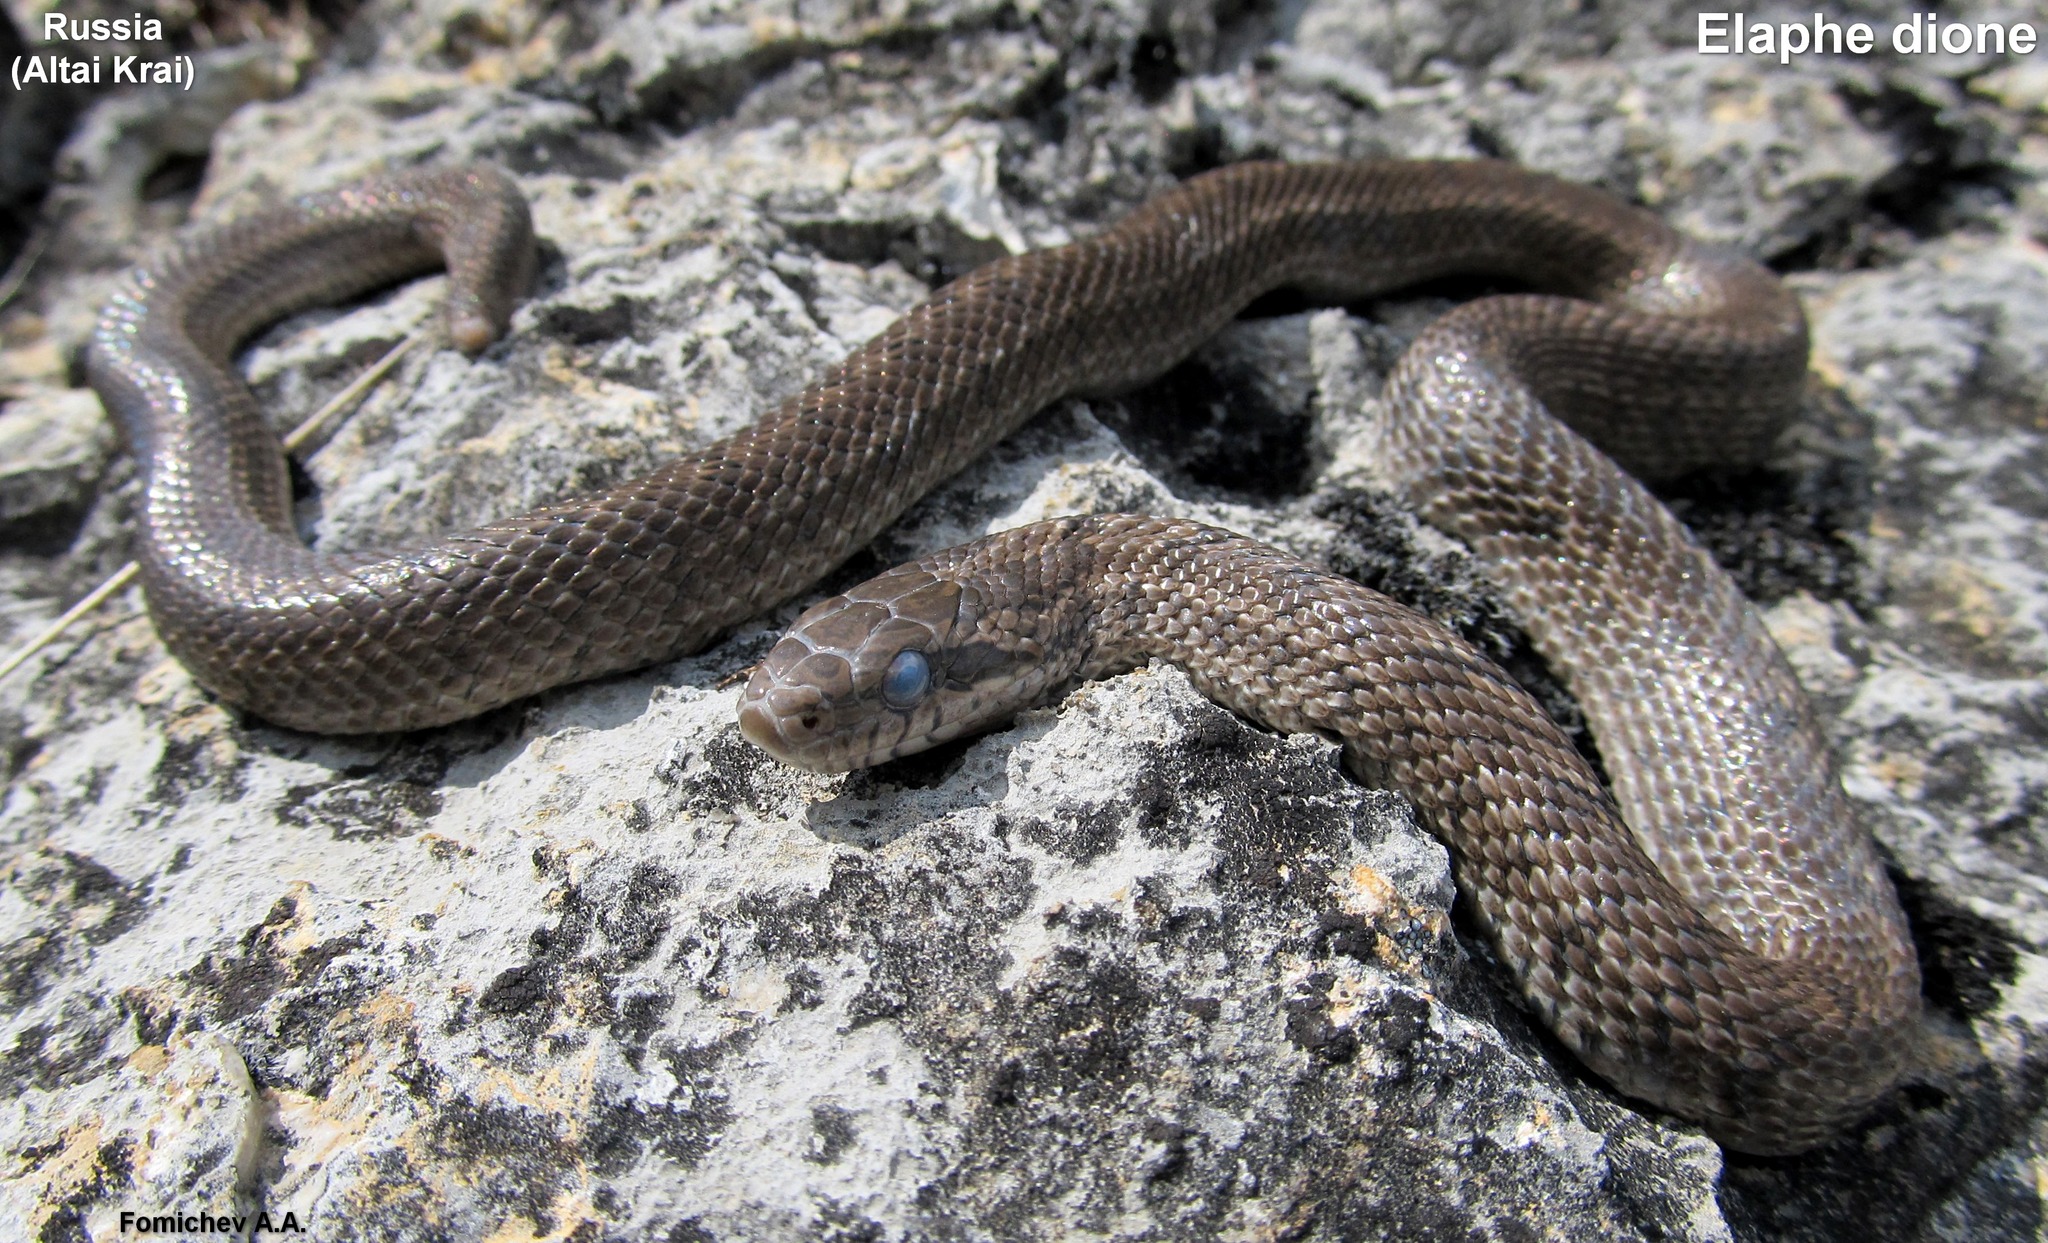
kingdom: Animalia
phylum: Chordata
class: Squamata
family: Colubridae
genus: Elaphe
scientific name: Elaphe dione
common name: Dione ratsnake
